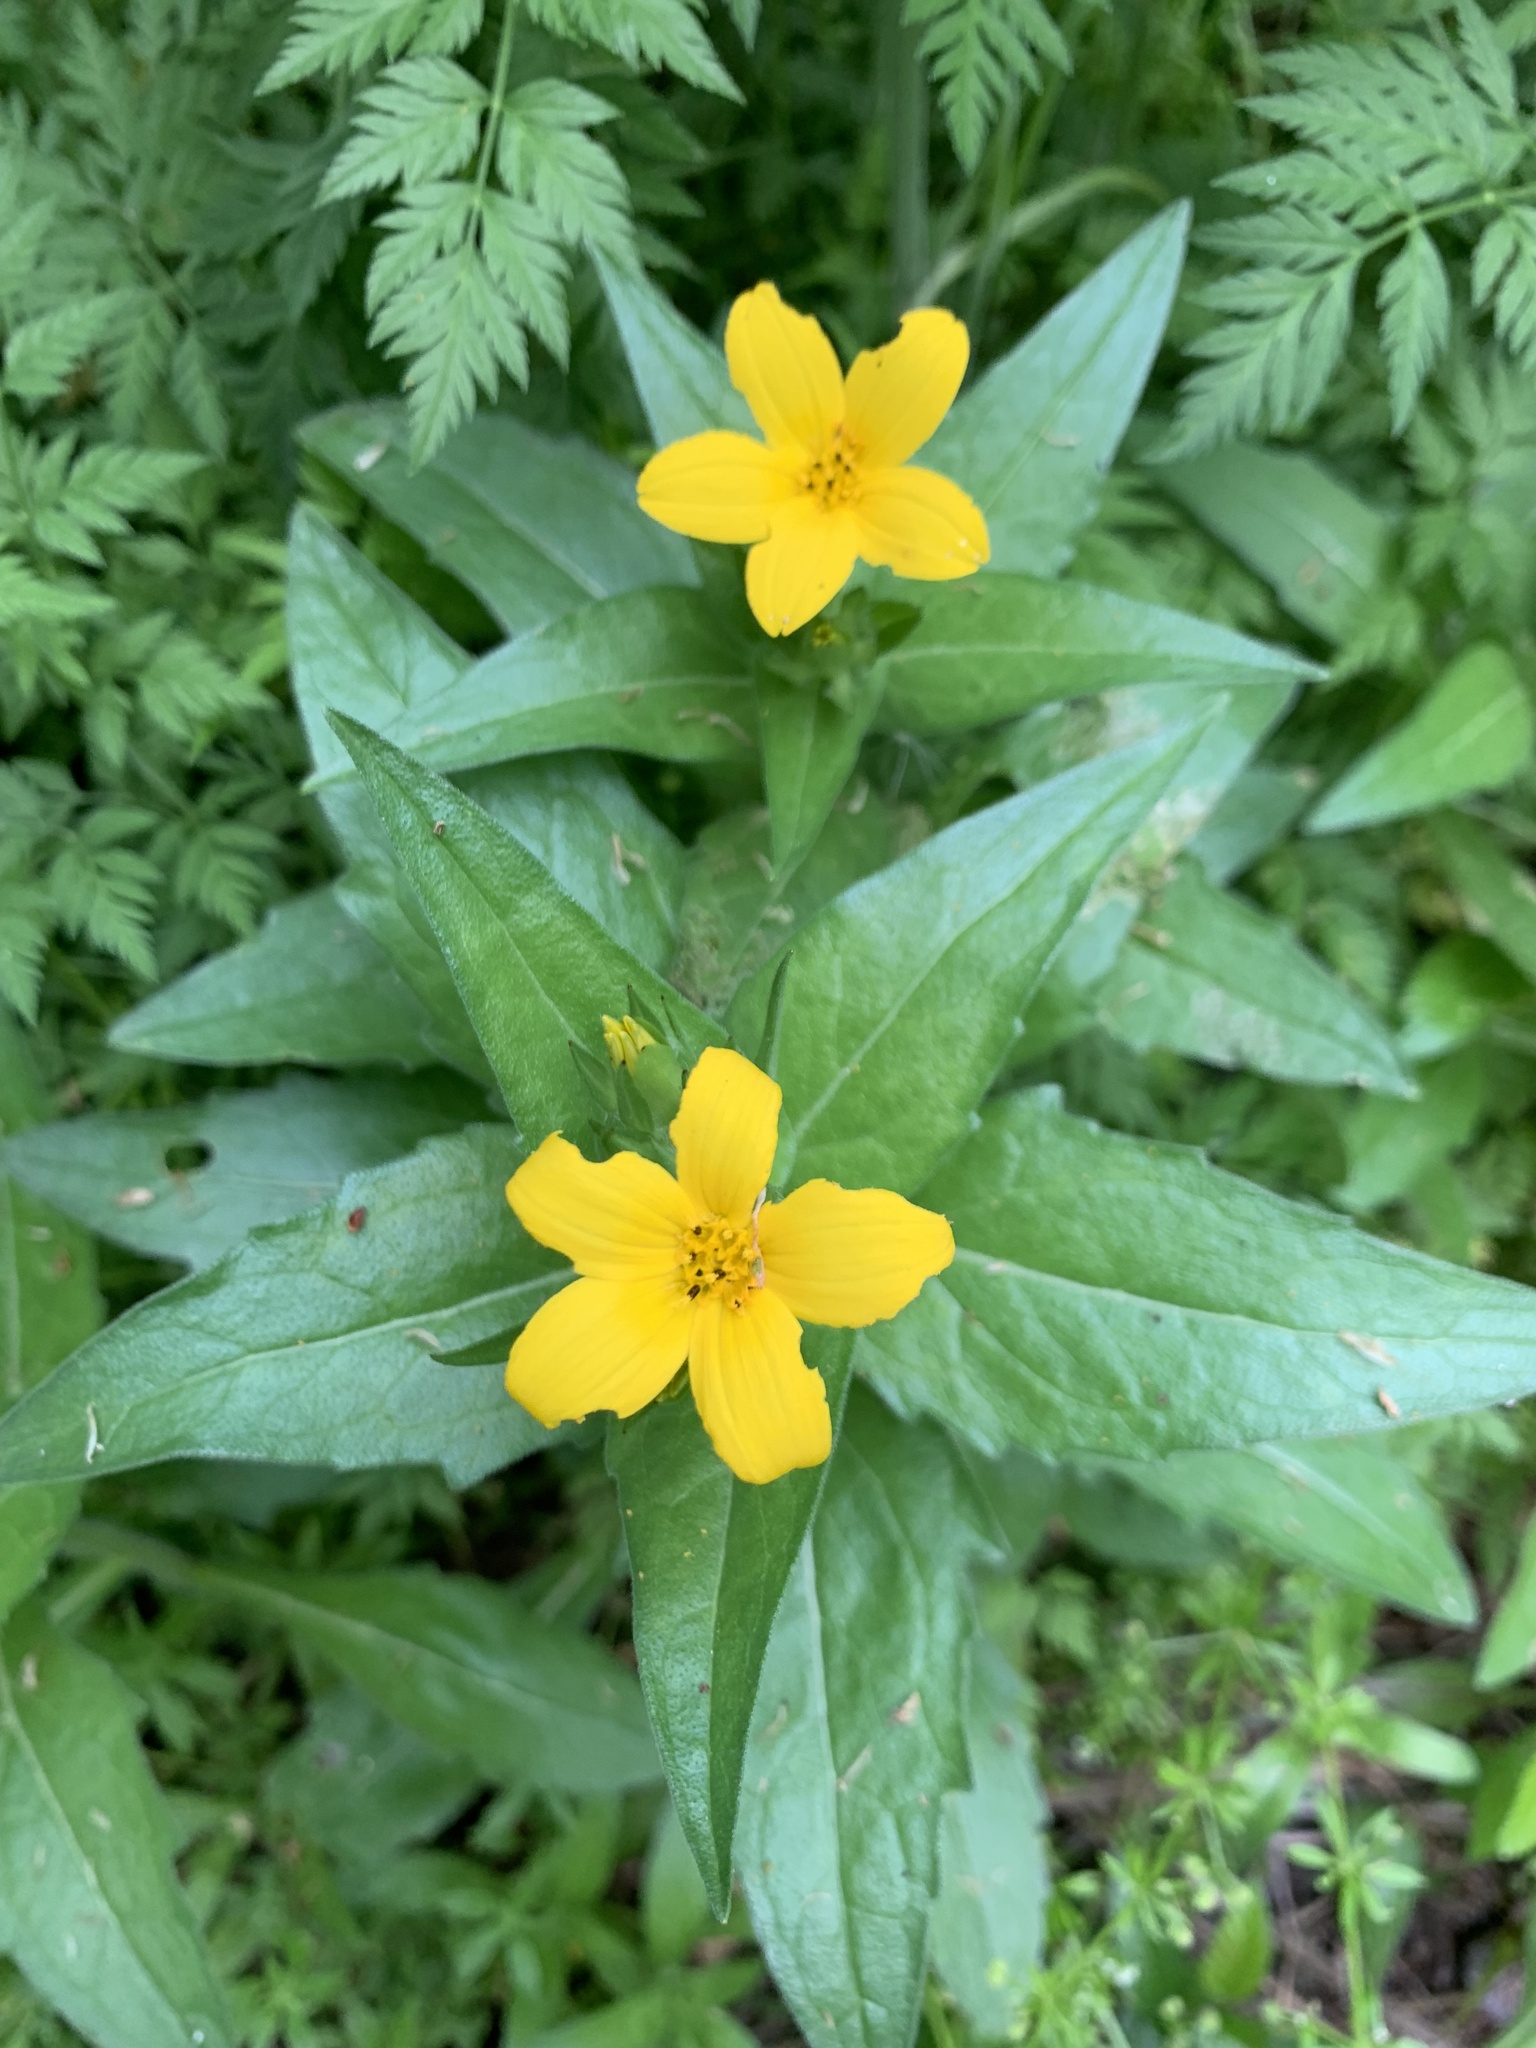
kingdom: Plantae
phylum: Tracheophyta
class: Magnoliopsida
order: Asterales
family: Asteraceae
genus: Lindheimera
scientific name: Lindheimera texana
